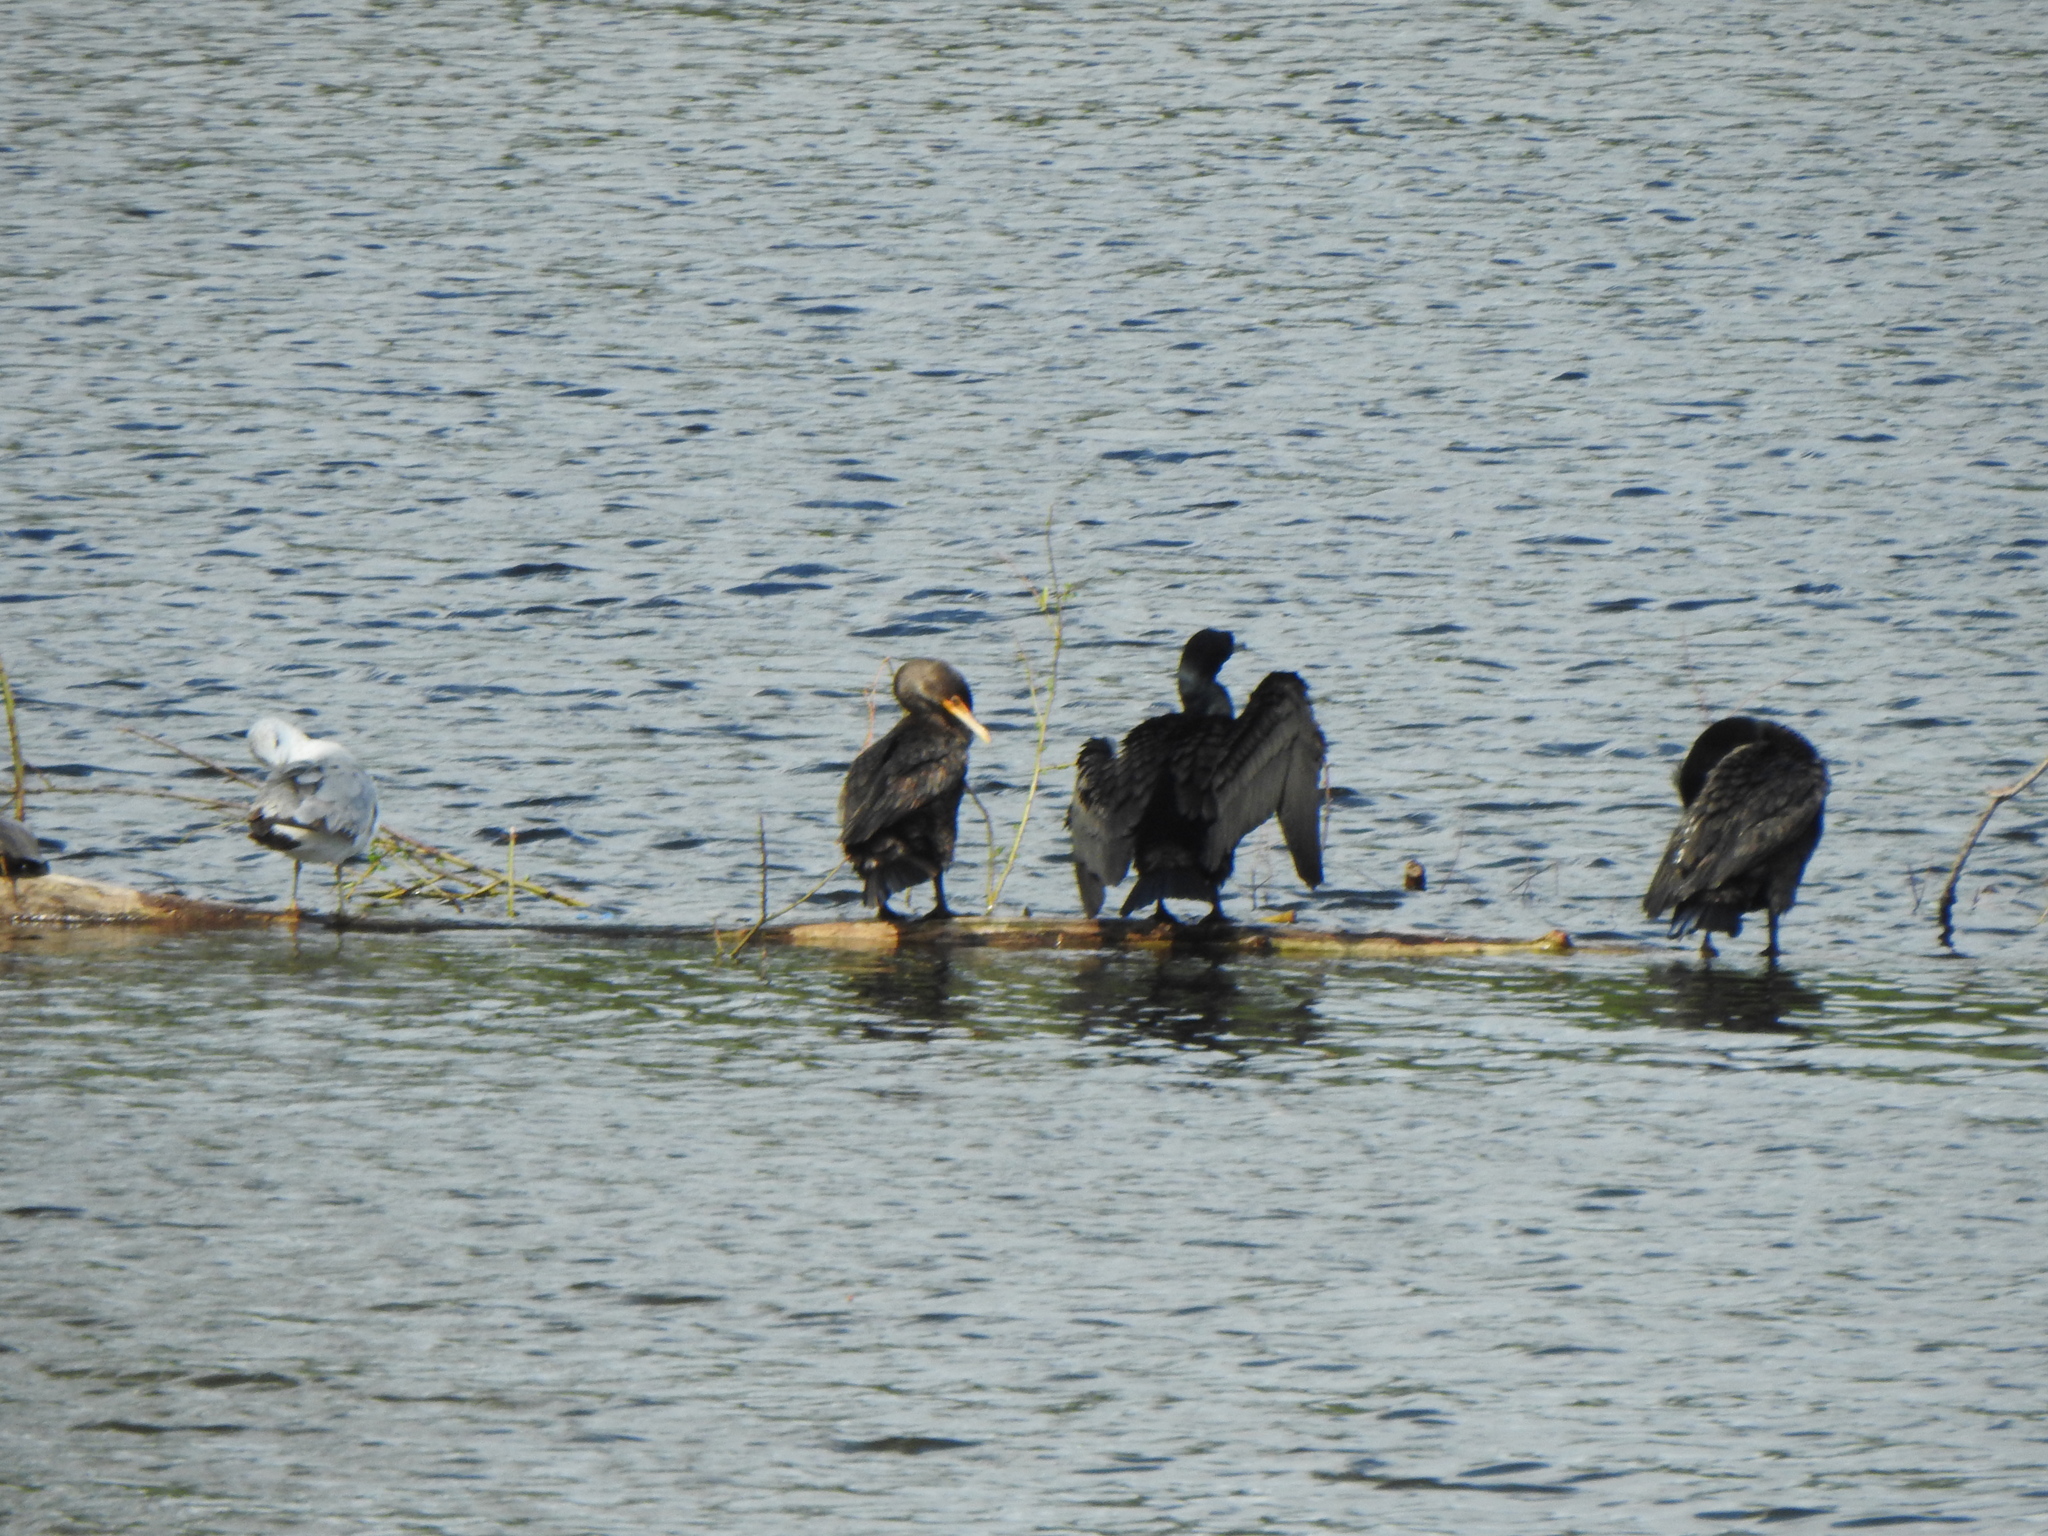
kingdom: Animalia
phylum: Chordata
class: Aves
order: Suliformes
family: Phalacrocoracidae
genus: Phalacrocorax
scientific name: Phalacrocorax auritus
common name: Double-crested cormorant
